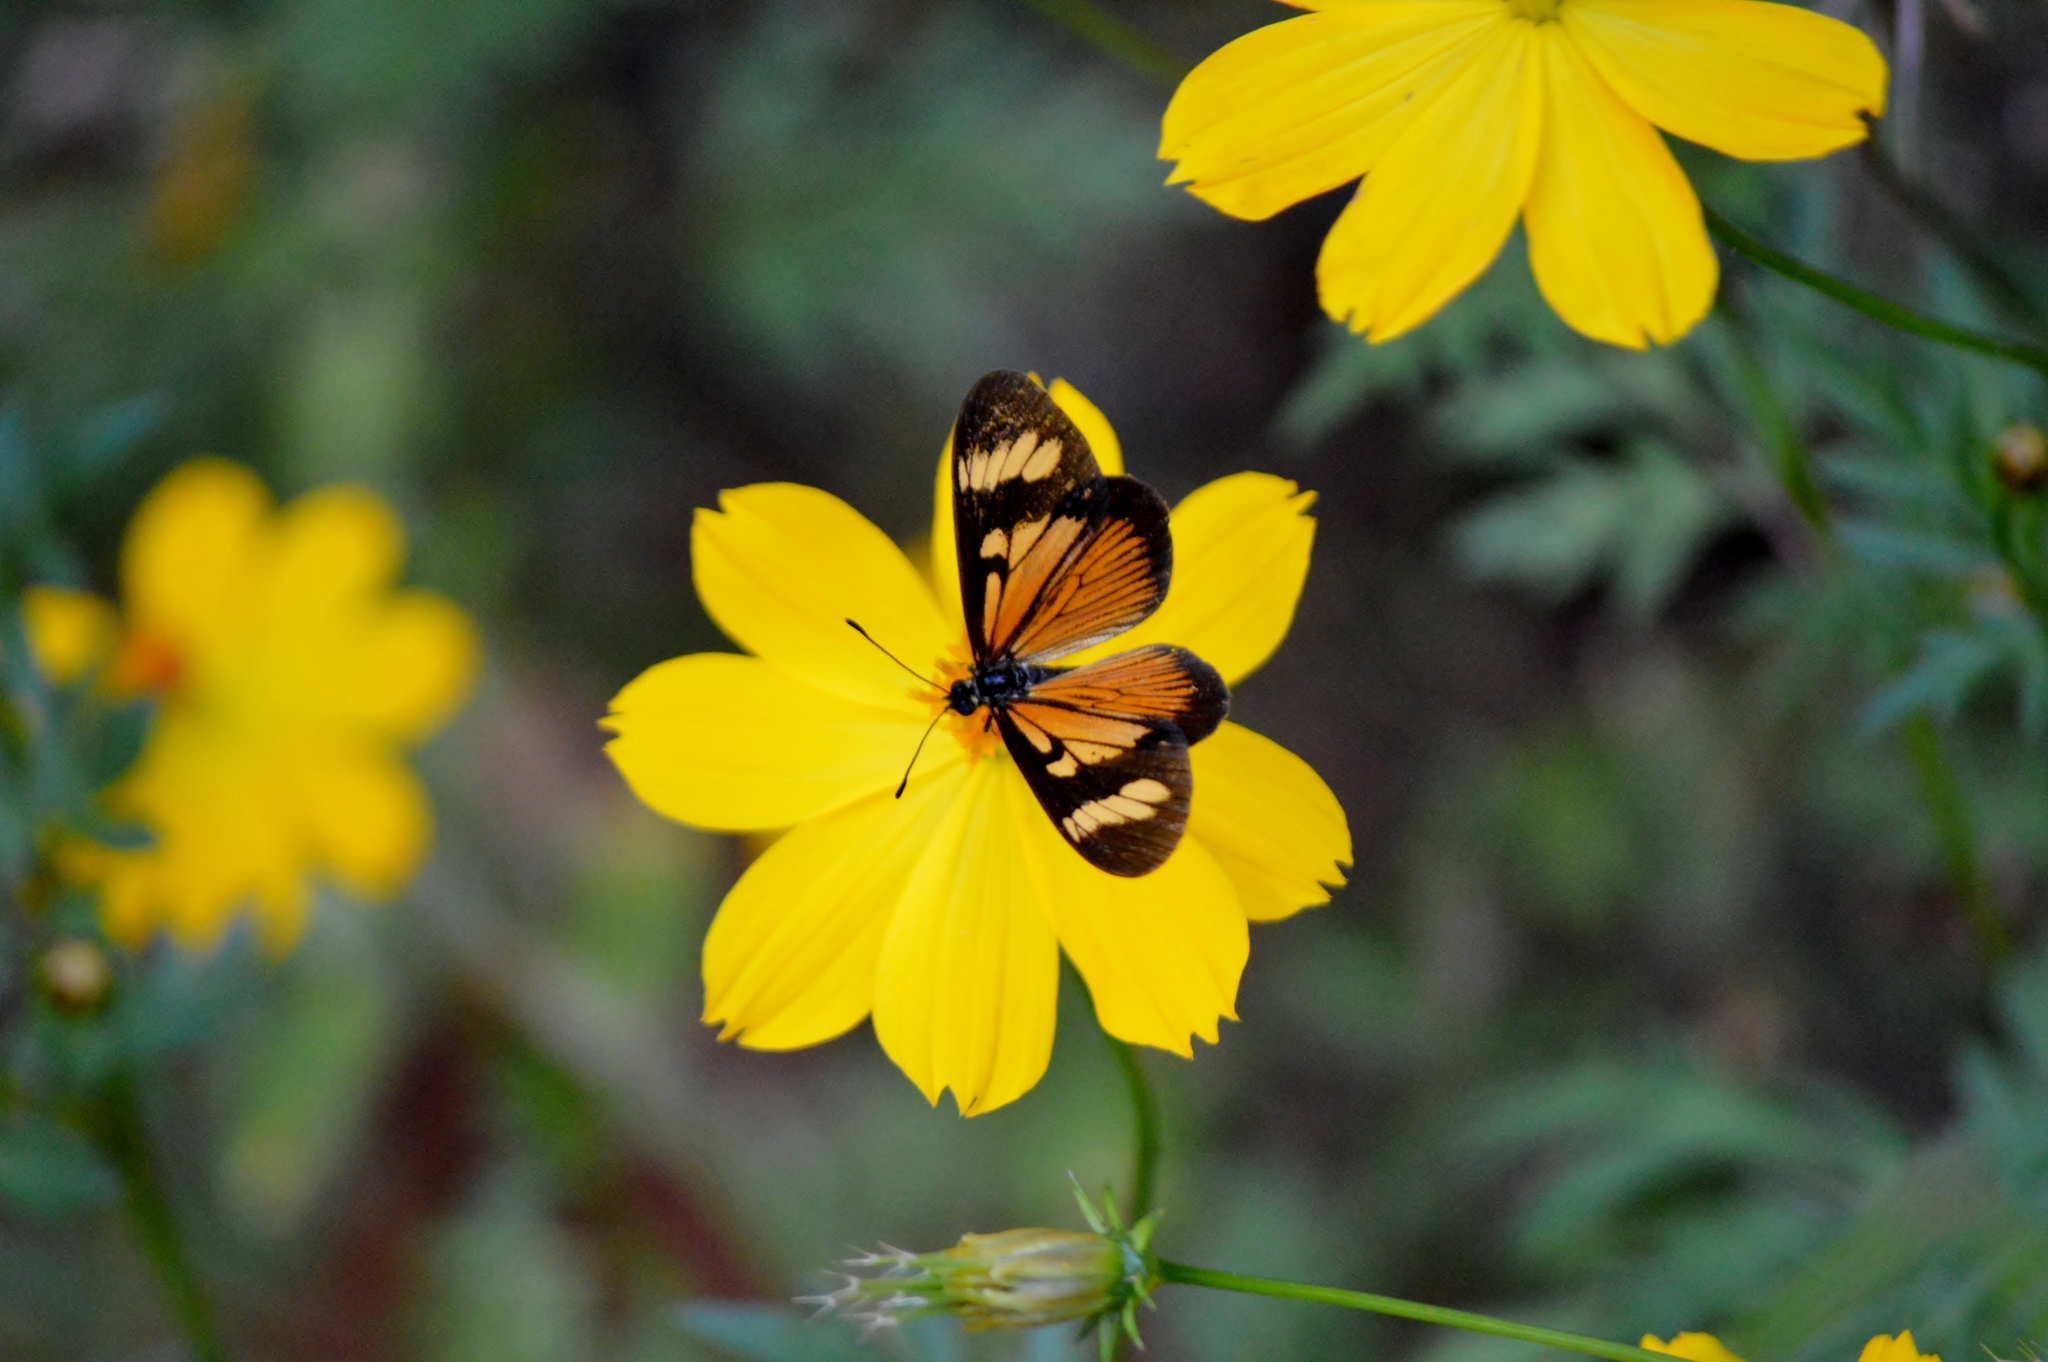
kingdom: Animalia
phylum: Arthropoda
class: Insecta
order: Lepidoptera
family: Nymphalidae
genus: Actinote
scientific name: Actinote pellenea
